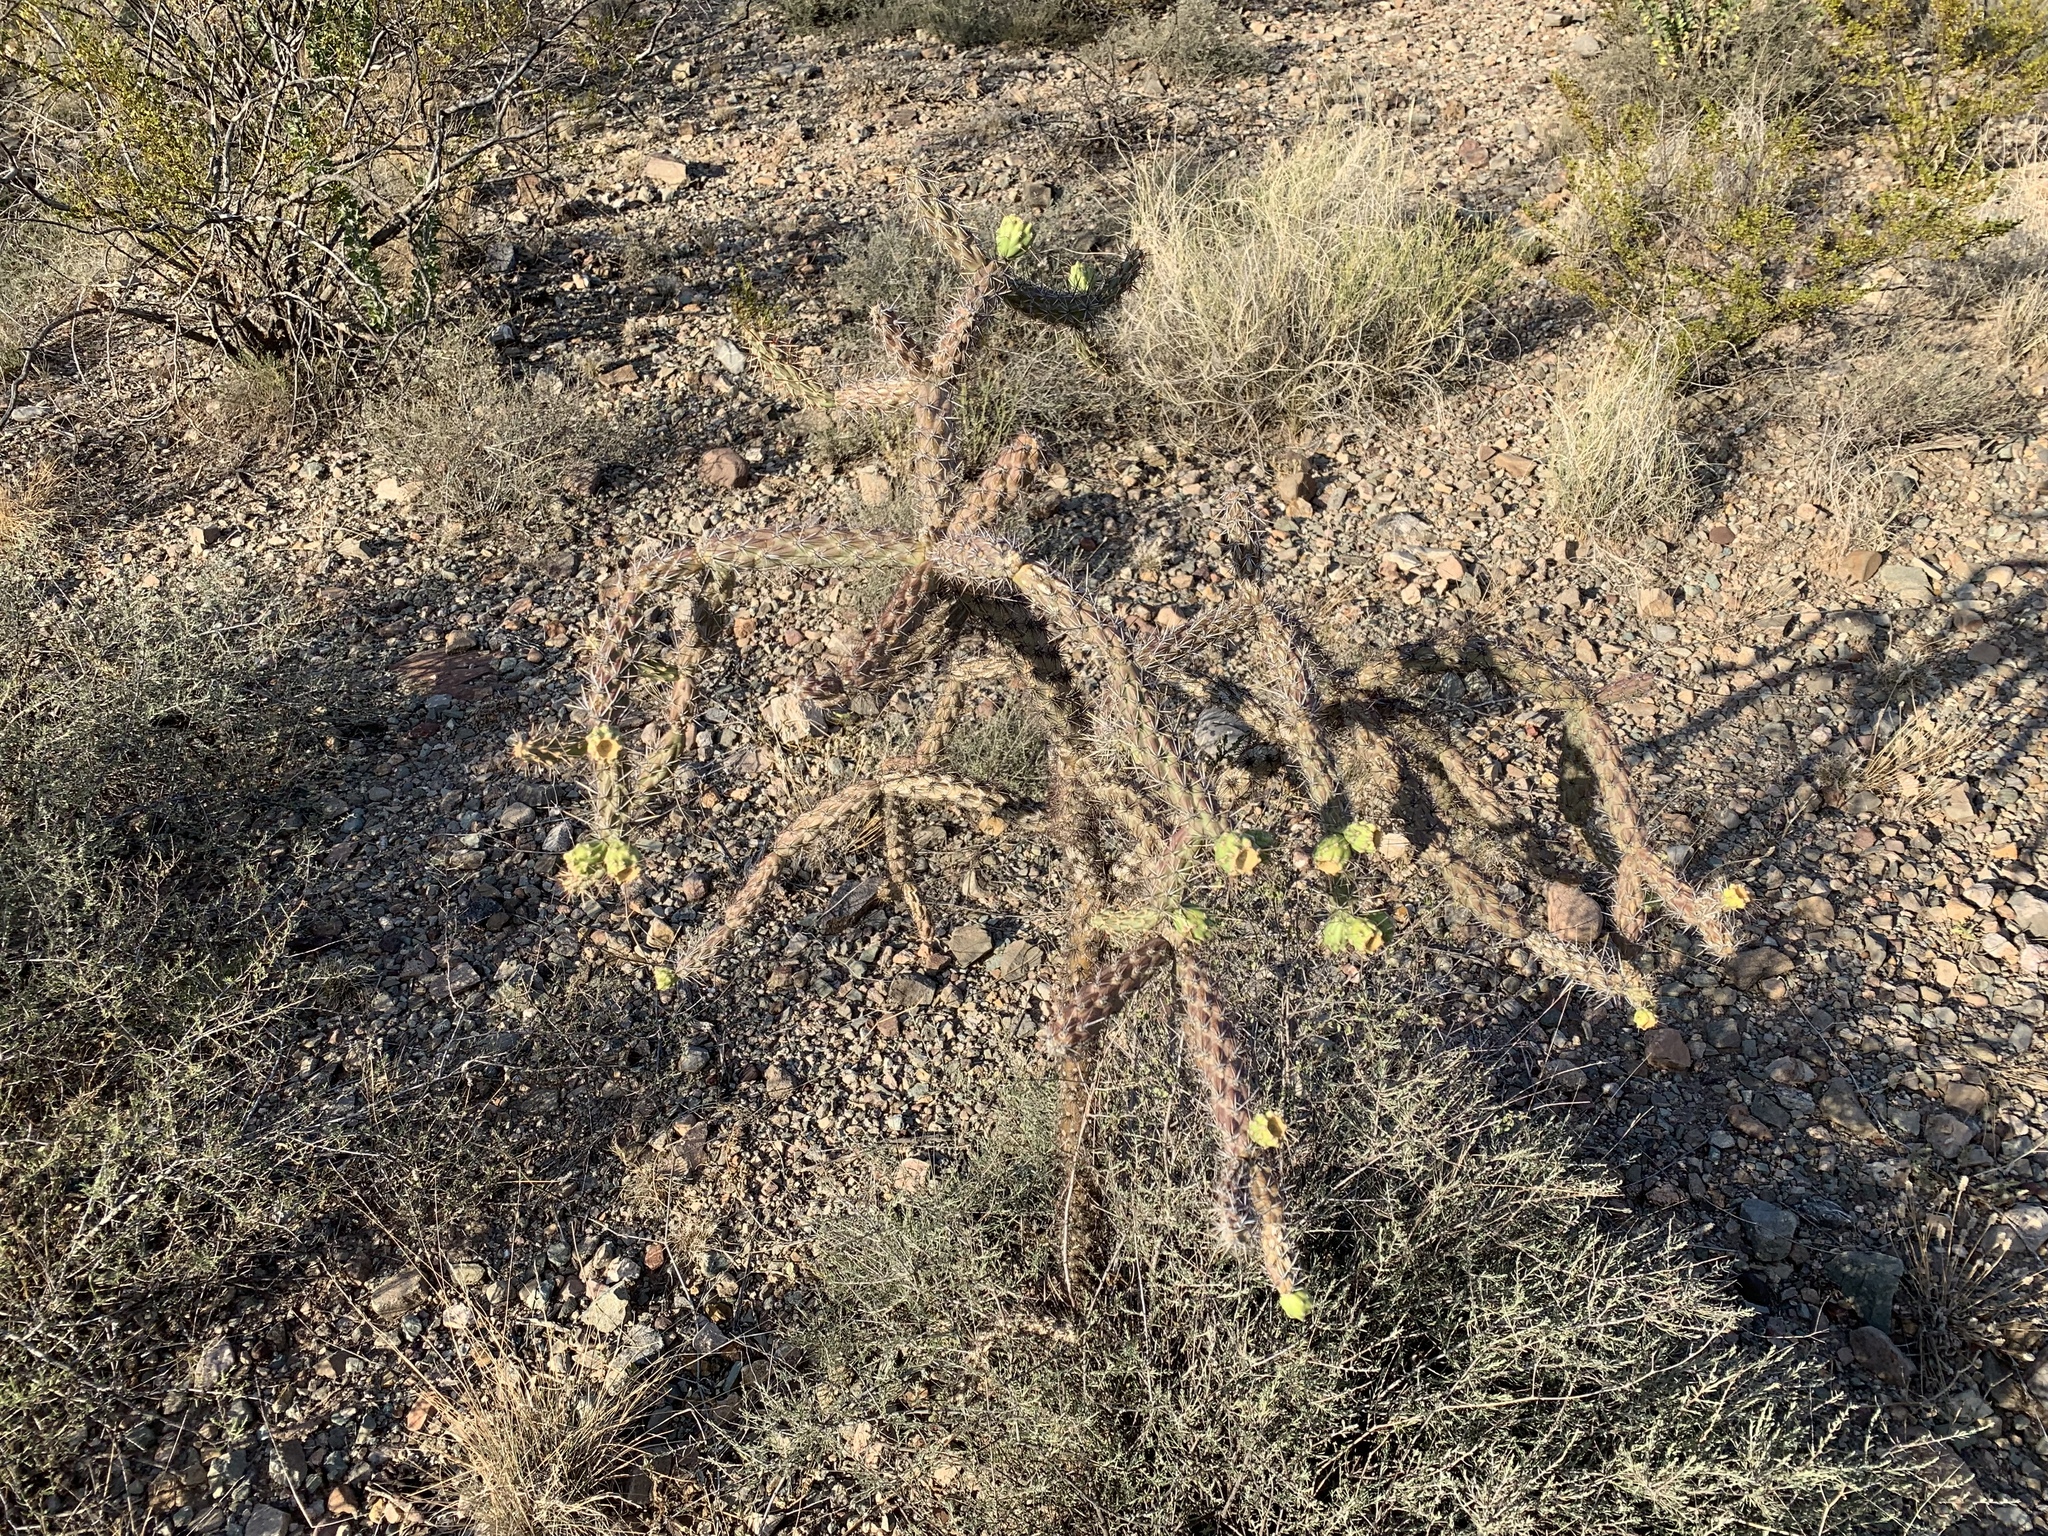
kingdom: Plantae
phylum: Tracheophyta
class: Magnoliopsida
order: Caryophyllales
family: Cactaceae
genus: Opuntia
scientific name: Opuntia engelmannii
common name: Cactus-apple
